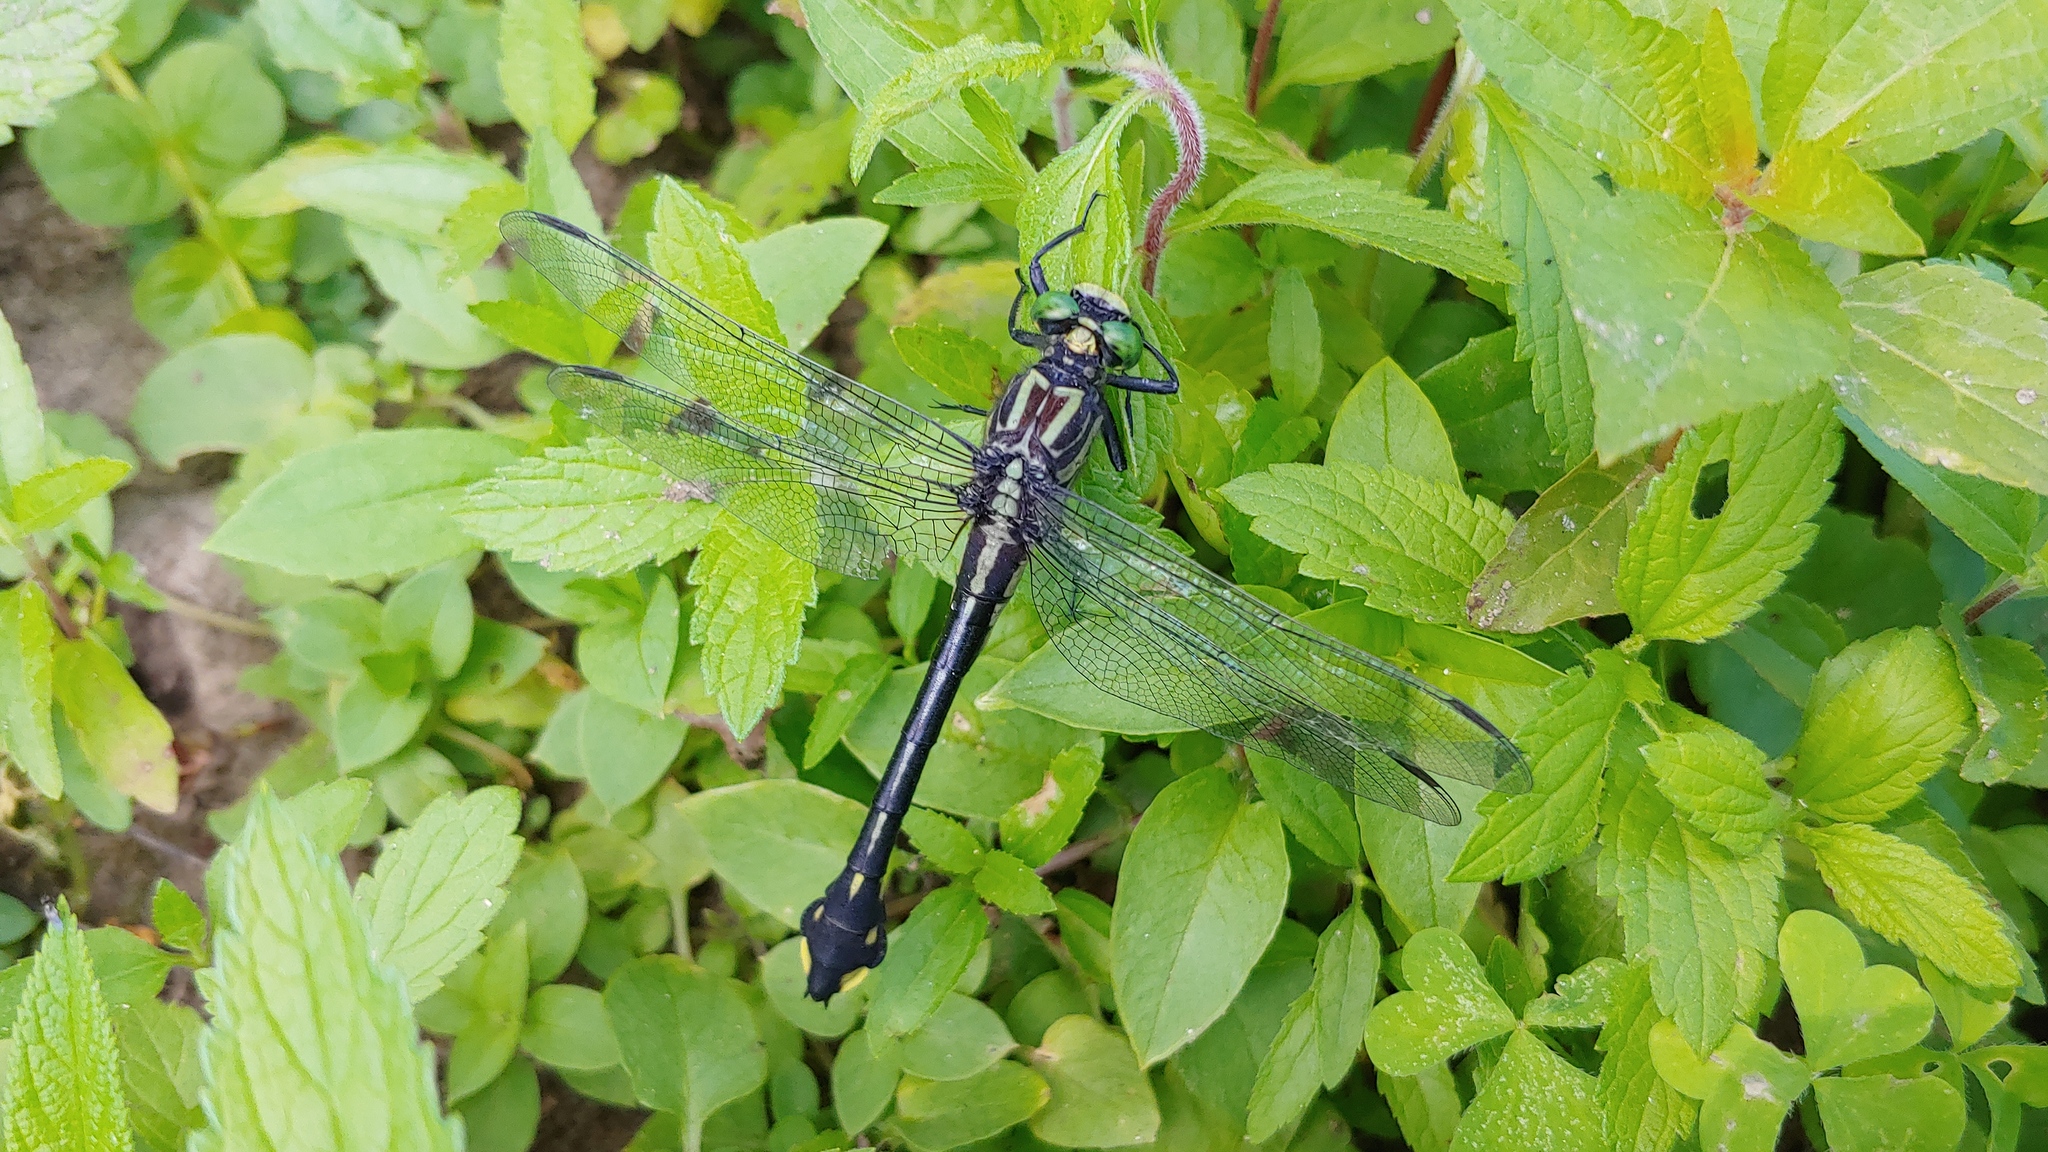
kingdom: Animalia
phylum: Arthropoda
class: Insecta
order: Odonata
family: Gomphidae
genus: Gomphurus
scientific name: Gomphurus vastus
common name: Cobra clubtail
